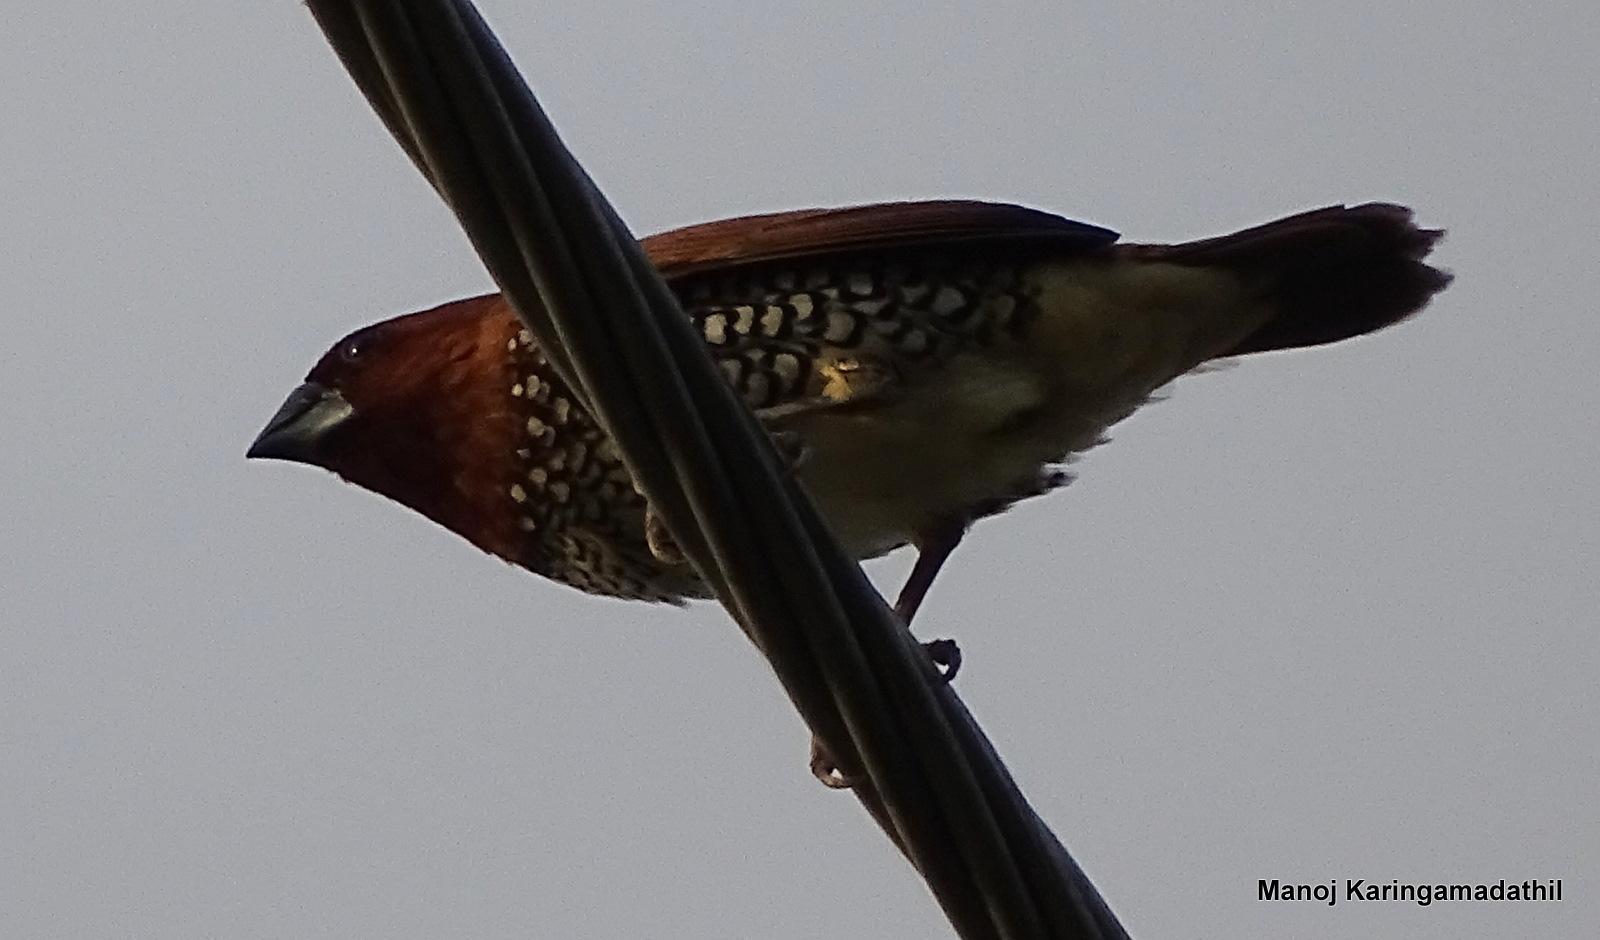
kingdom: Animalia
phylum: Chordata
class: Aves
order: Passeriformes
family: Estrildidae
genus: Lonchura
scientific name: Lonchura punctulata
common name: Scaly-breasted munia
